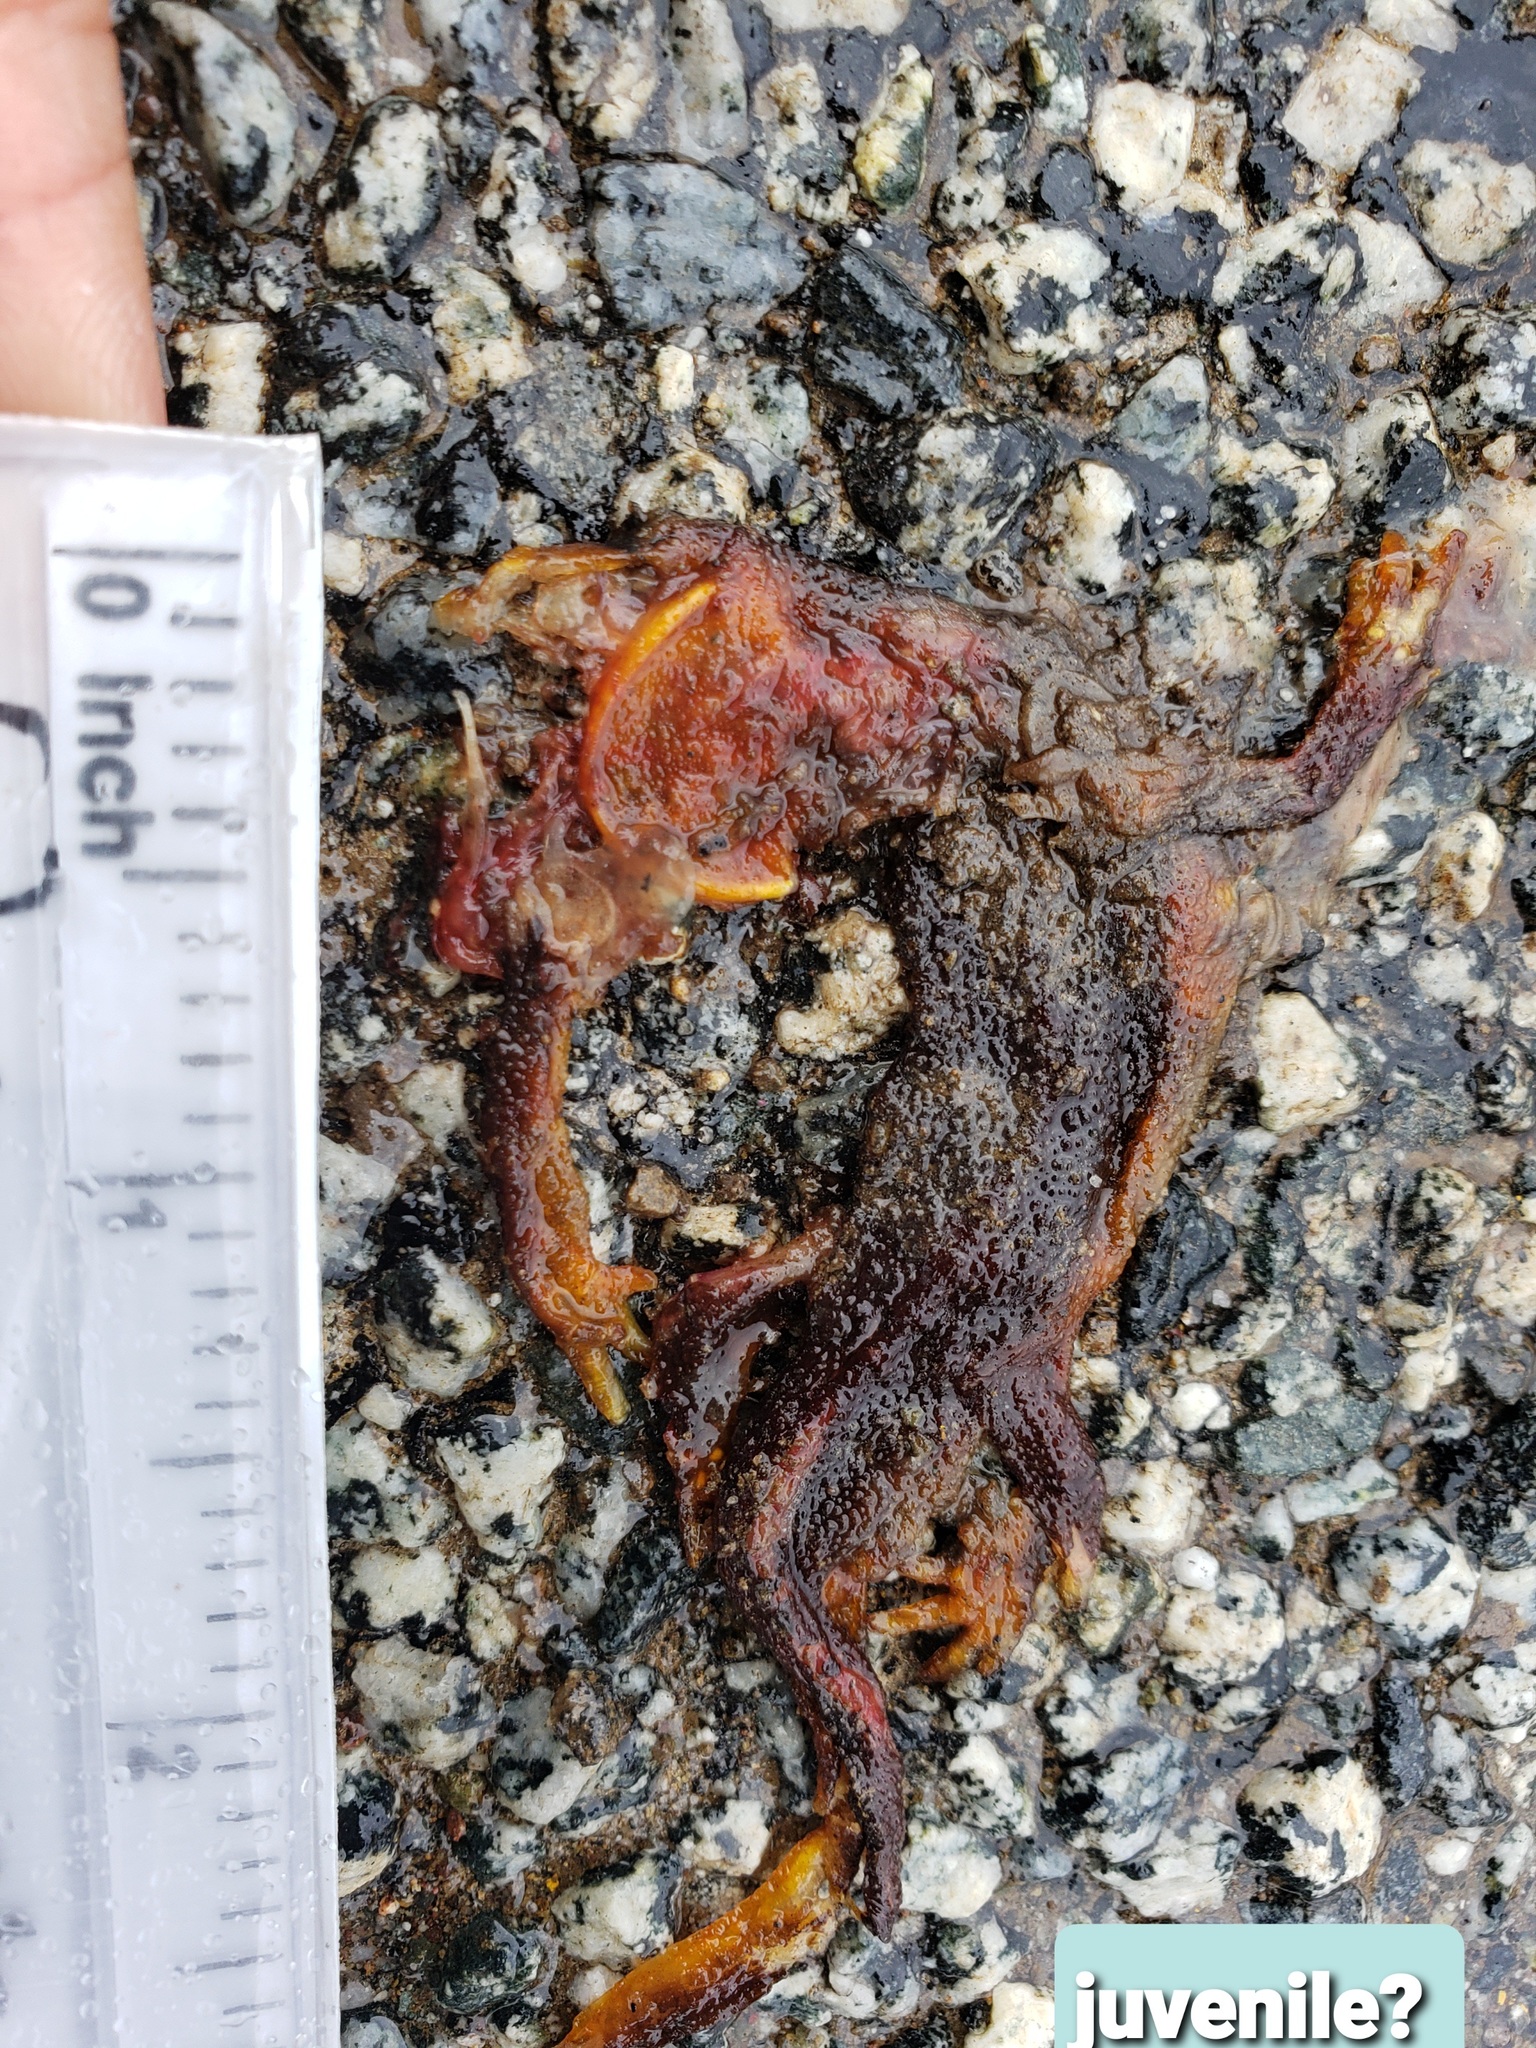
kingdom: Animalia
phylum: Chordata
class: Amphibia
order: Caudata
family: Salamandridae
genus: Taricha
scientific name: Taricha
